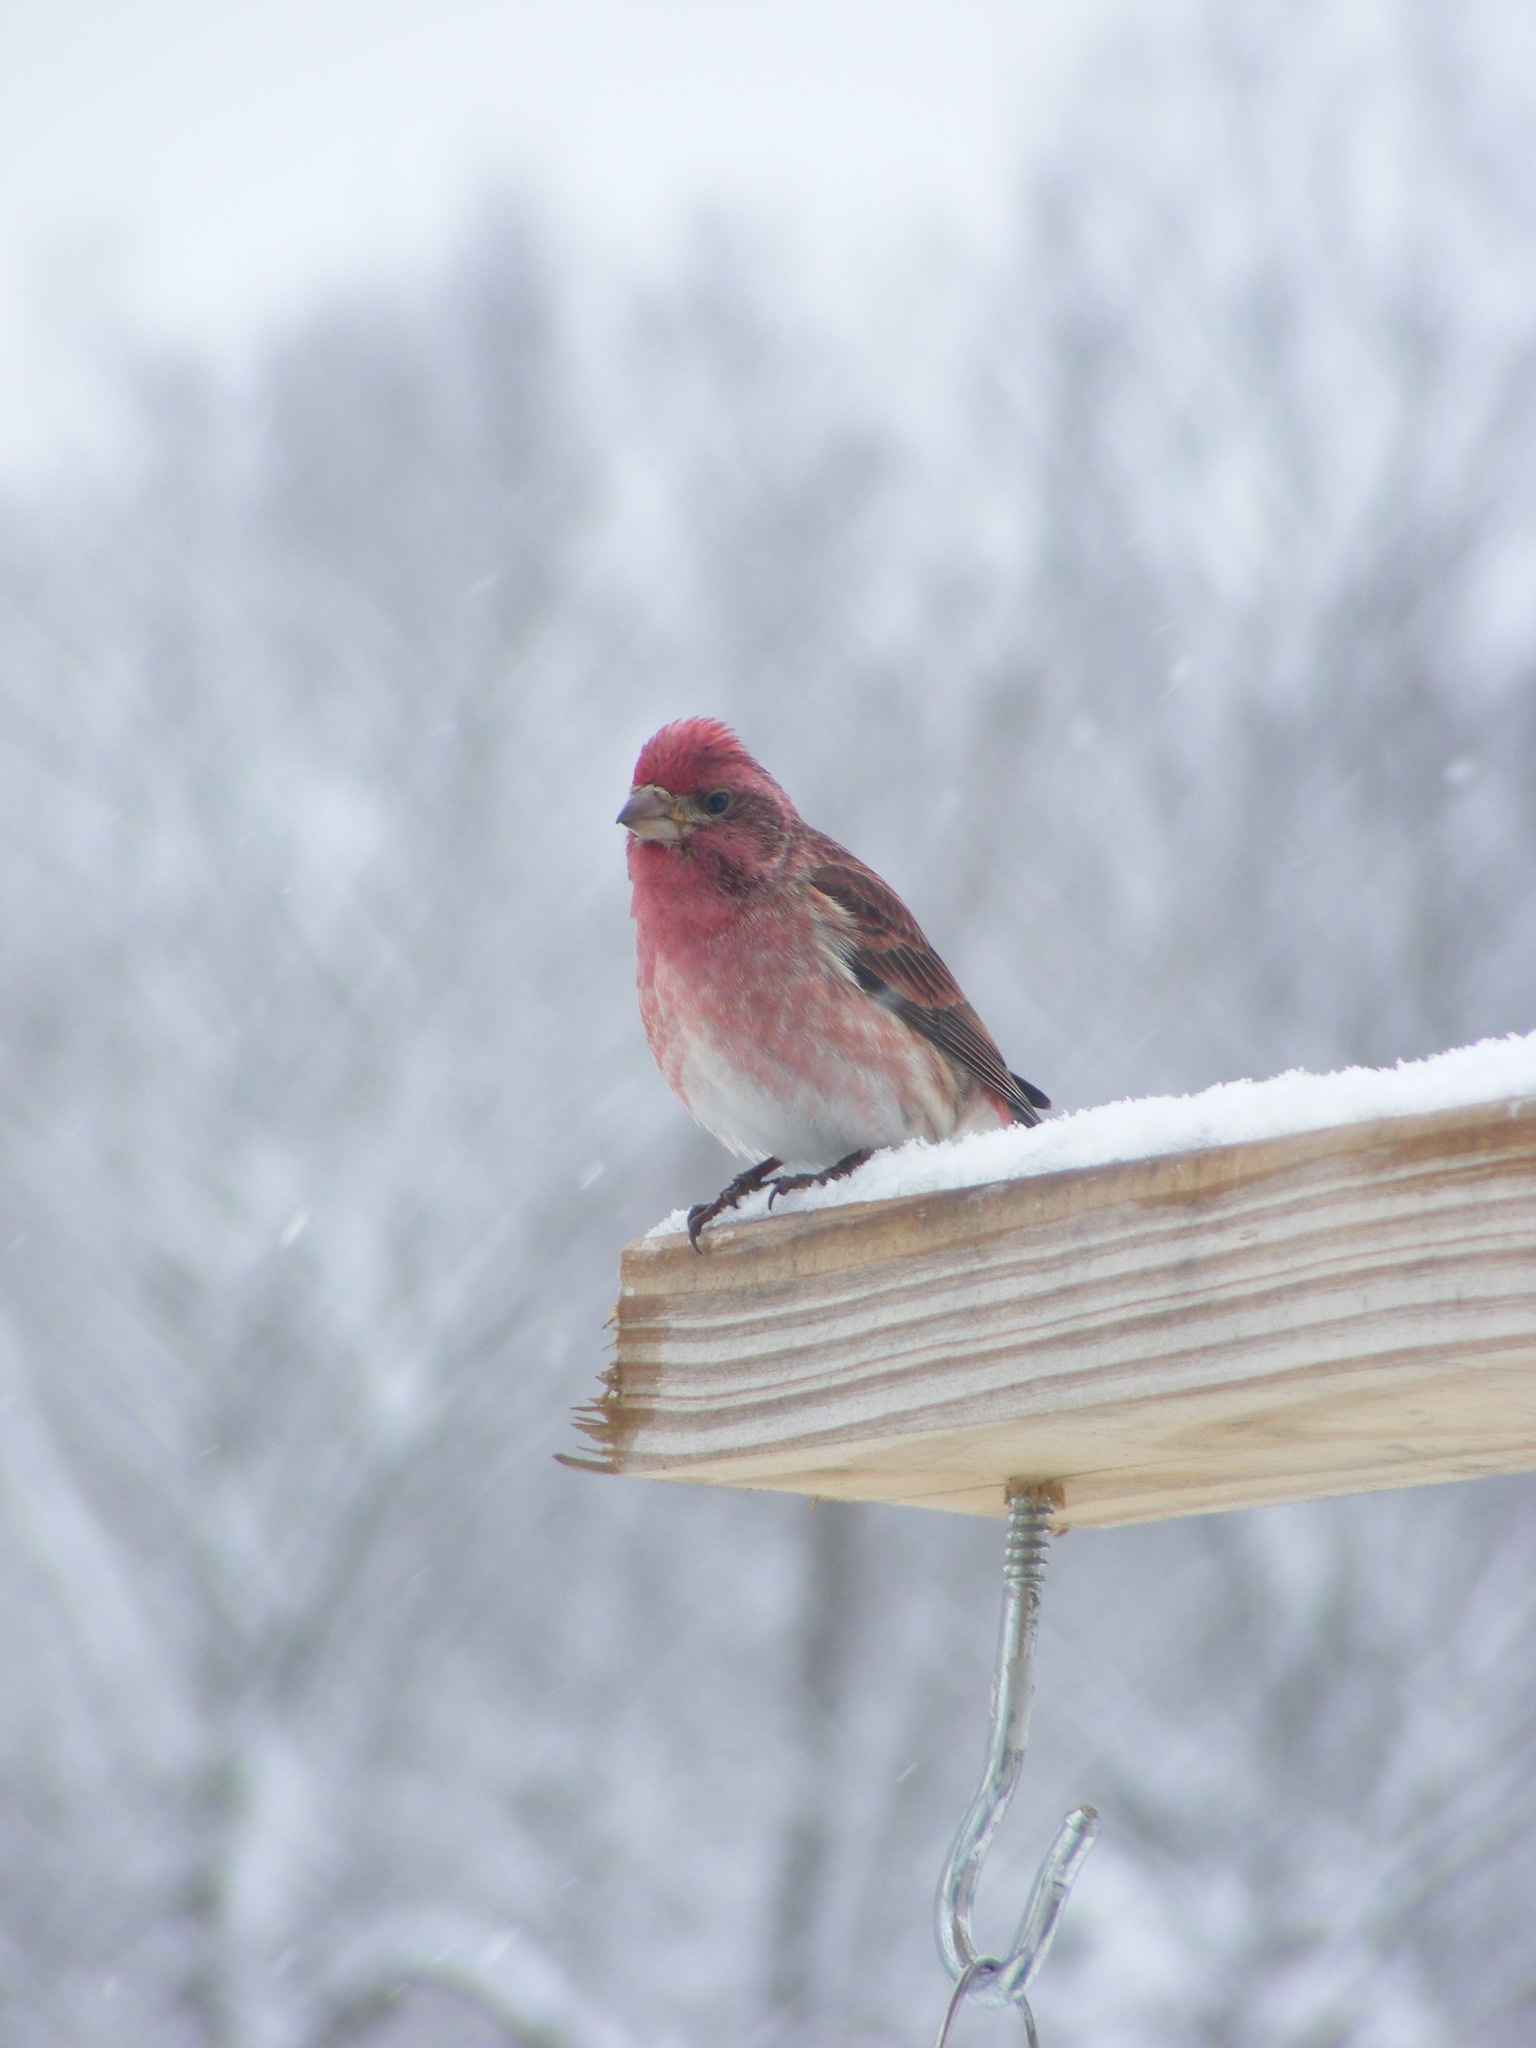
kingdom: Animalia
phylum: Chordata
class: Aves
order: Passeriformes
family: Fringillidae
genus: Haemorhous
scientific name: Haemorhous purpureus
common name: Purple finch
